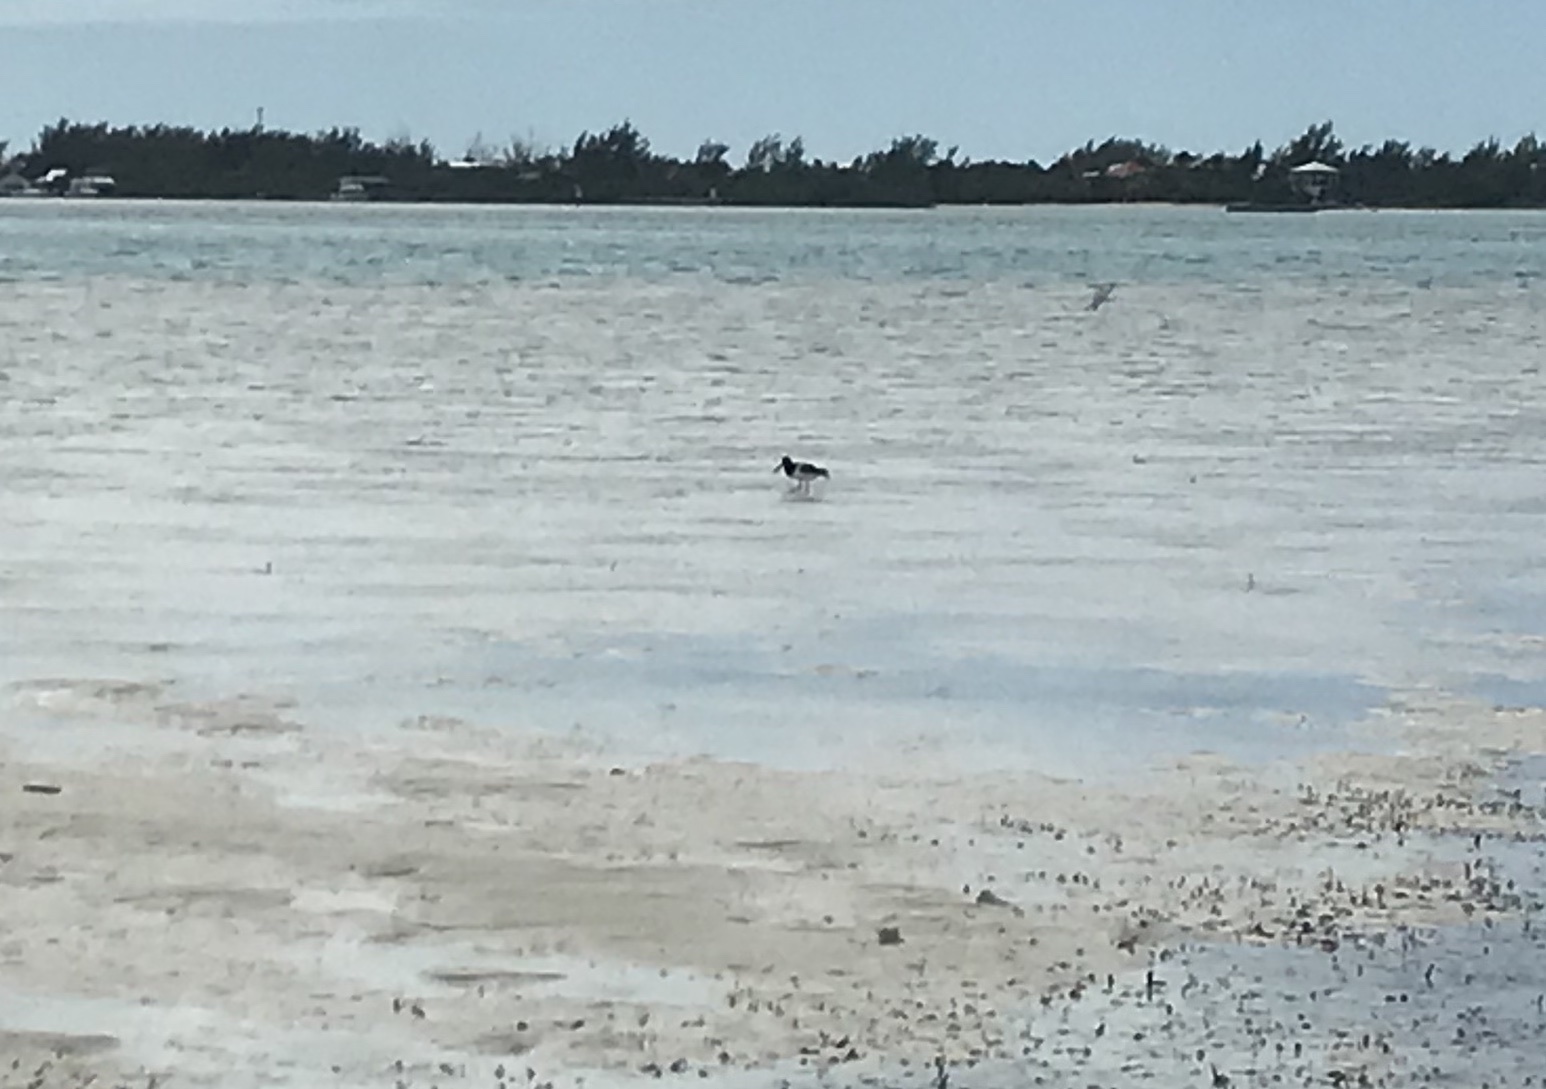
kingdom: Animalia
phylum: Chordata
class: Aves
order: Charadriiformes
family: Haematopodidae
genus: Haematopus
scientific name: Haematopus palliatus
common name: American oystercatcher
